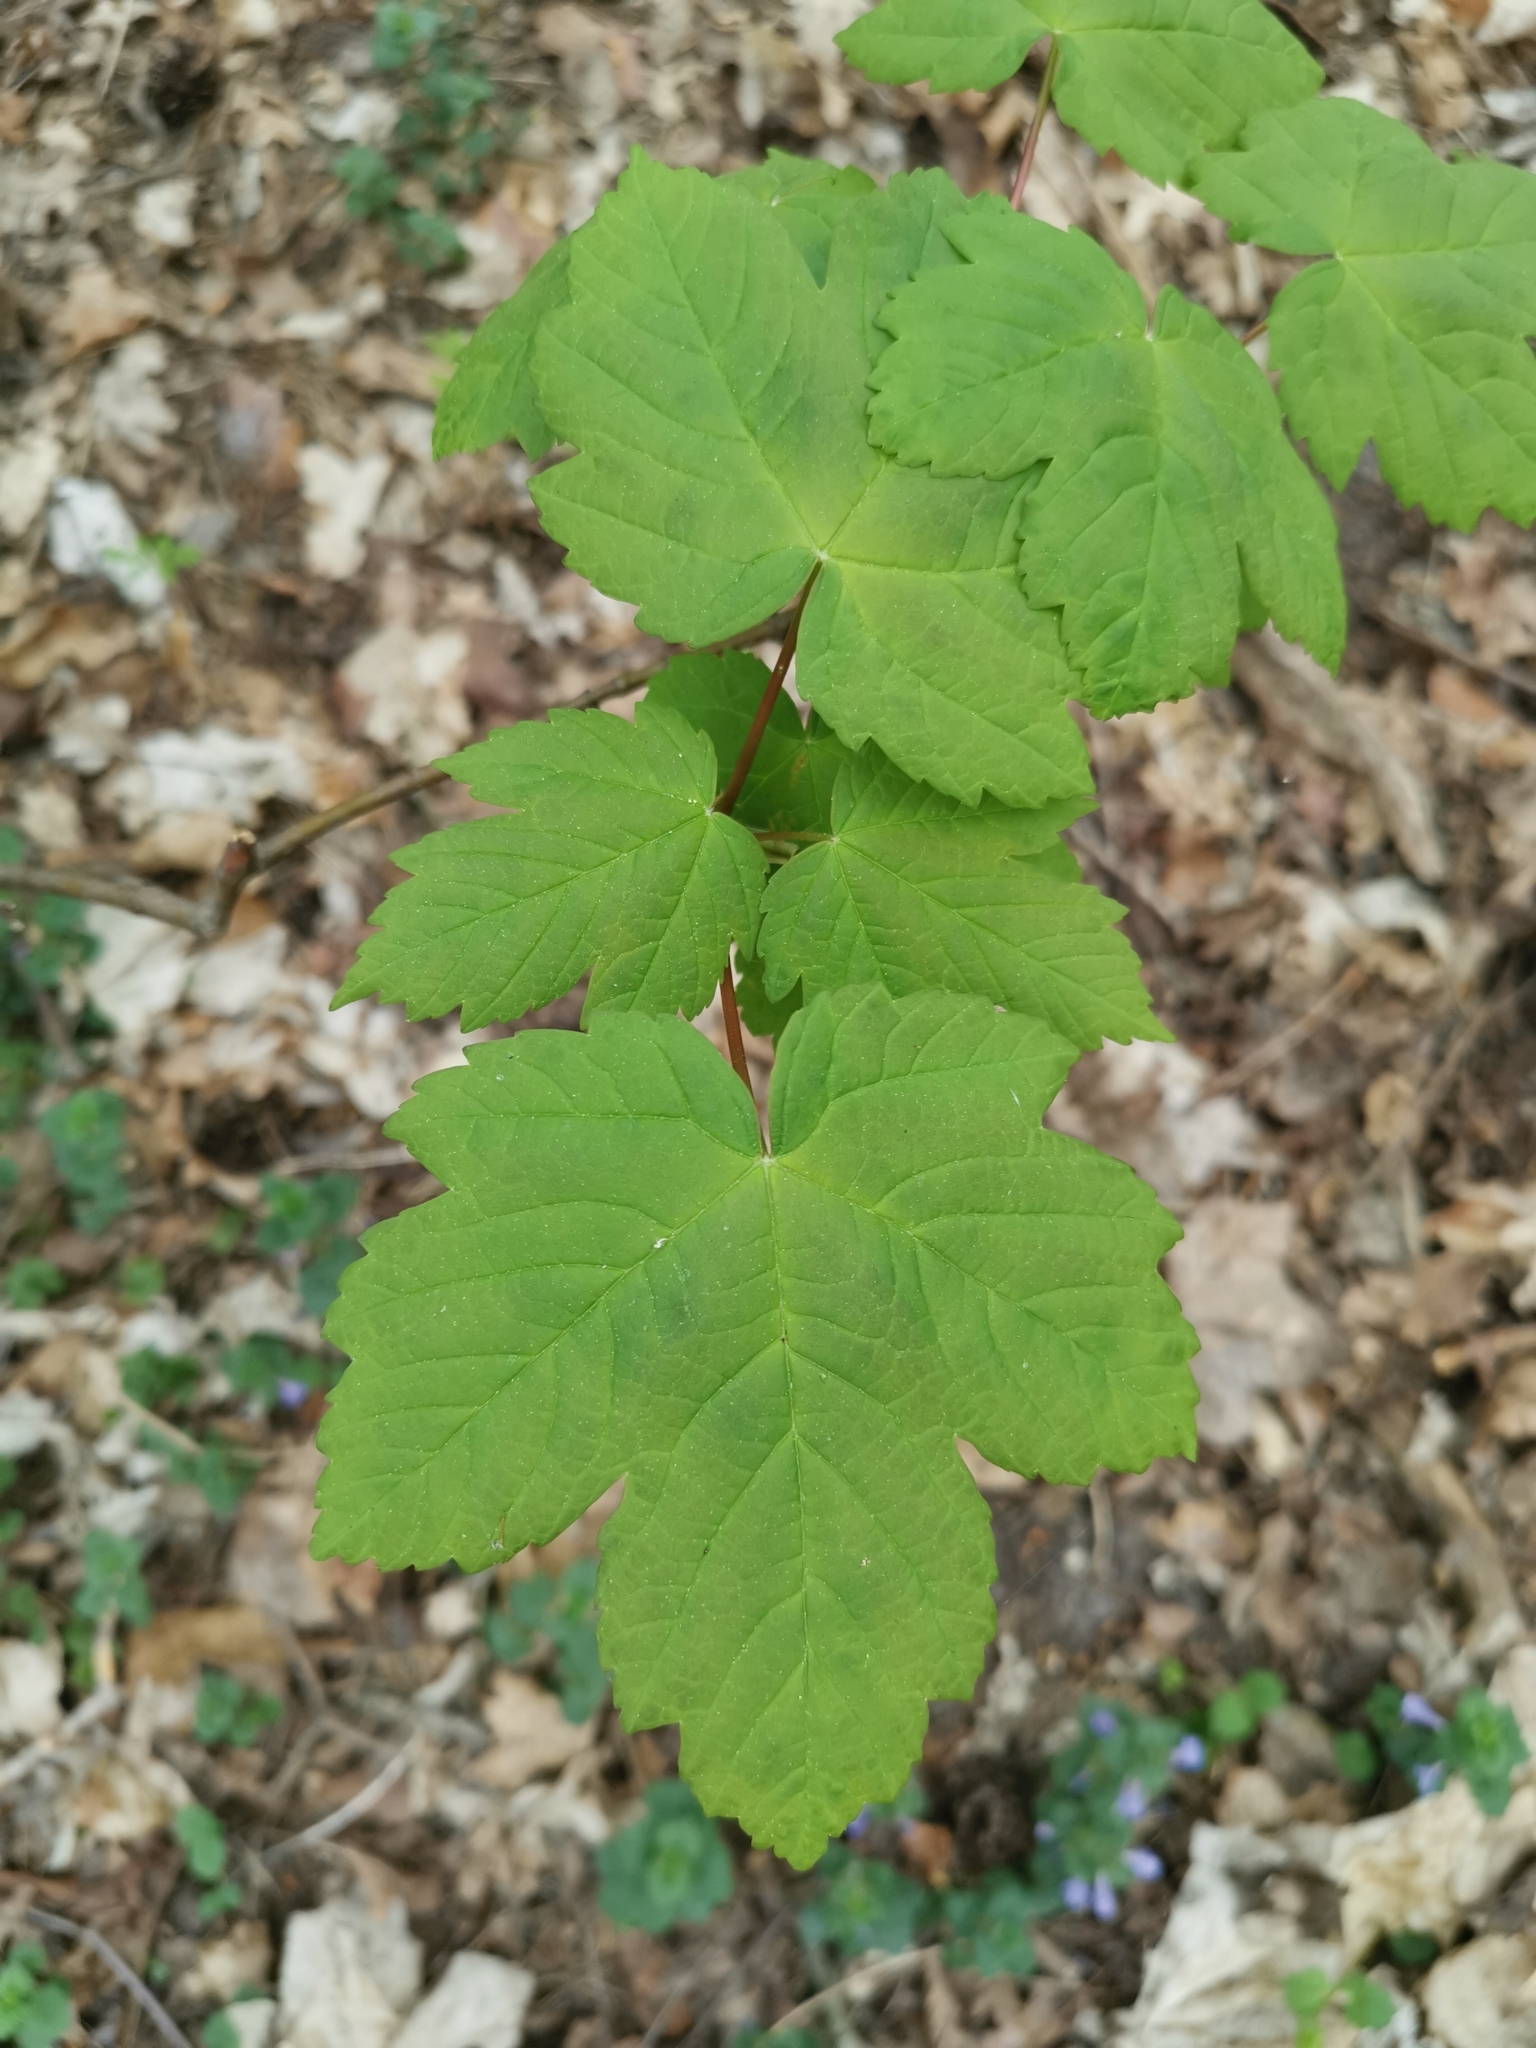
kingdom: Plantae
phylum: Tracheophyta
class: Magnoliopsida
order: Sapindales
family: Sapindaceae
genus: Acer
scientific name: Acer pseudoplatanus
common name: Sycamore
